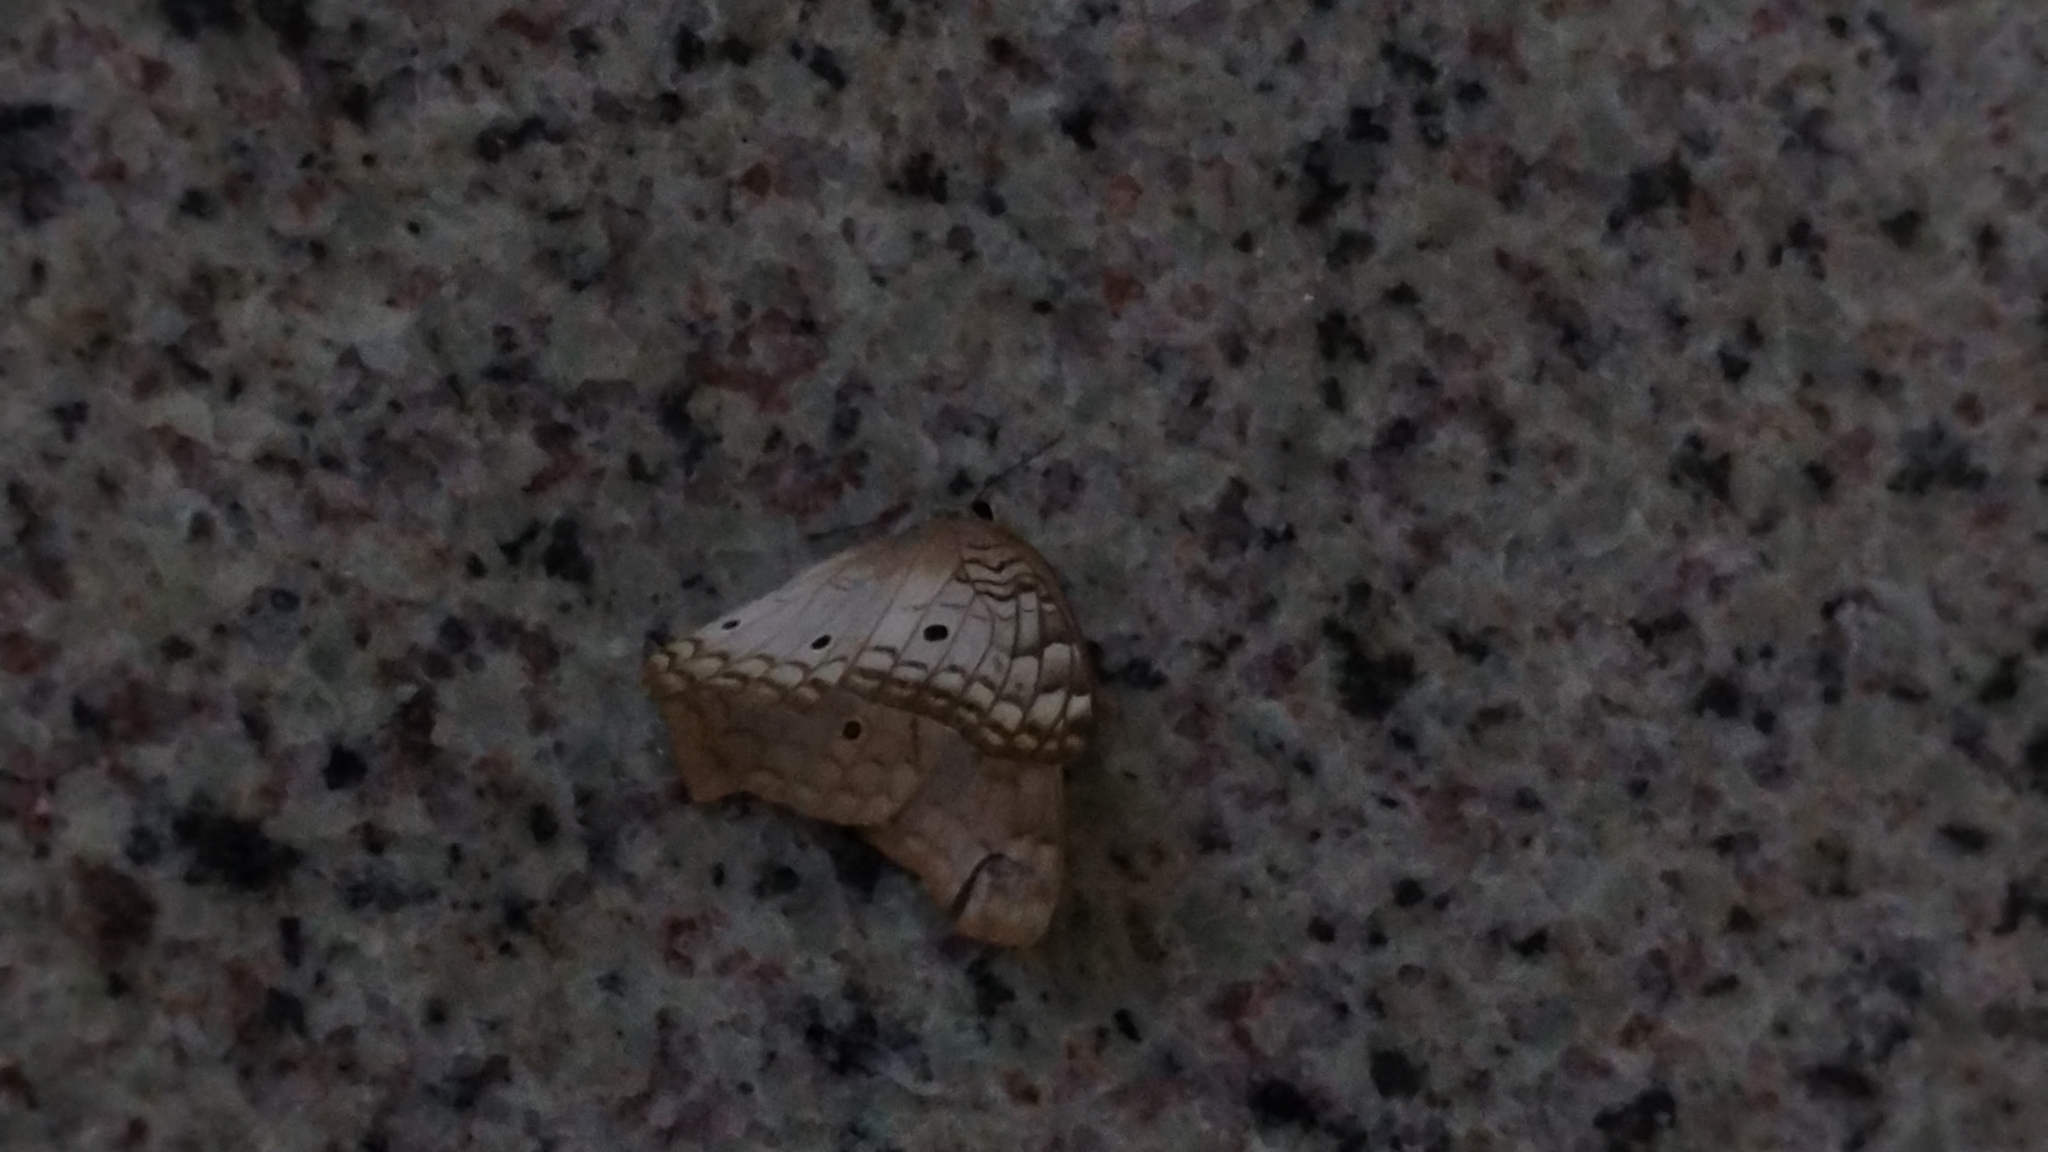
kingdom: Animalia
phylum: Arthropoda
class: Insecta
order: Lepidoptera
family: Nymphalidae
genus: Anartia
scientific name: Anartia jatrophae
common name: White peacock
